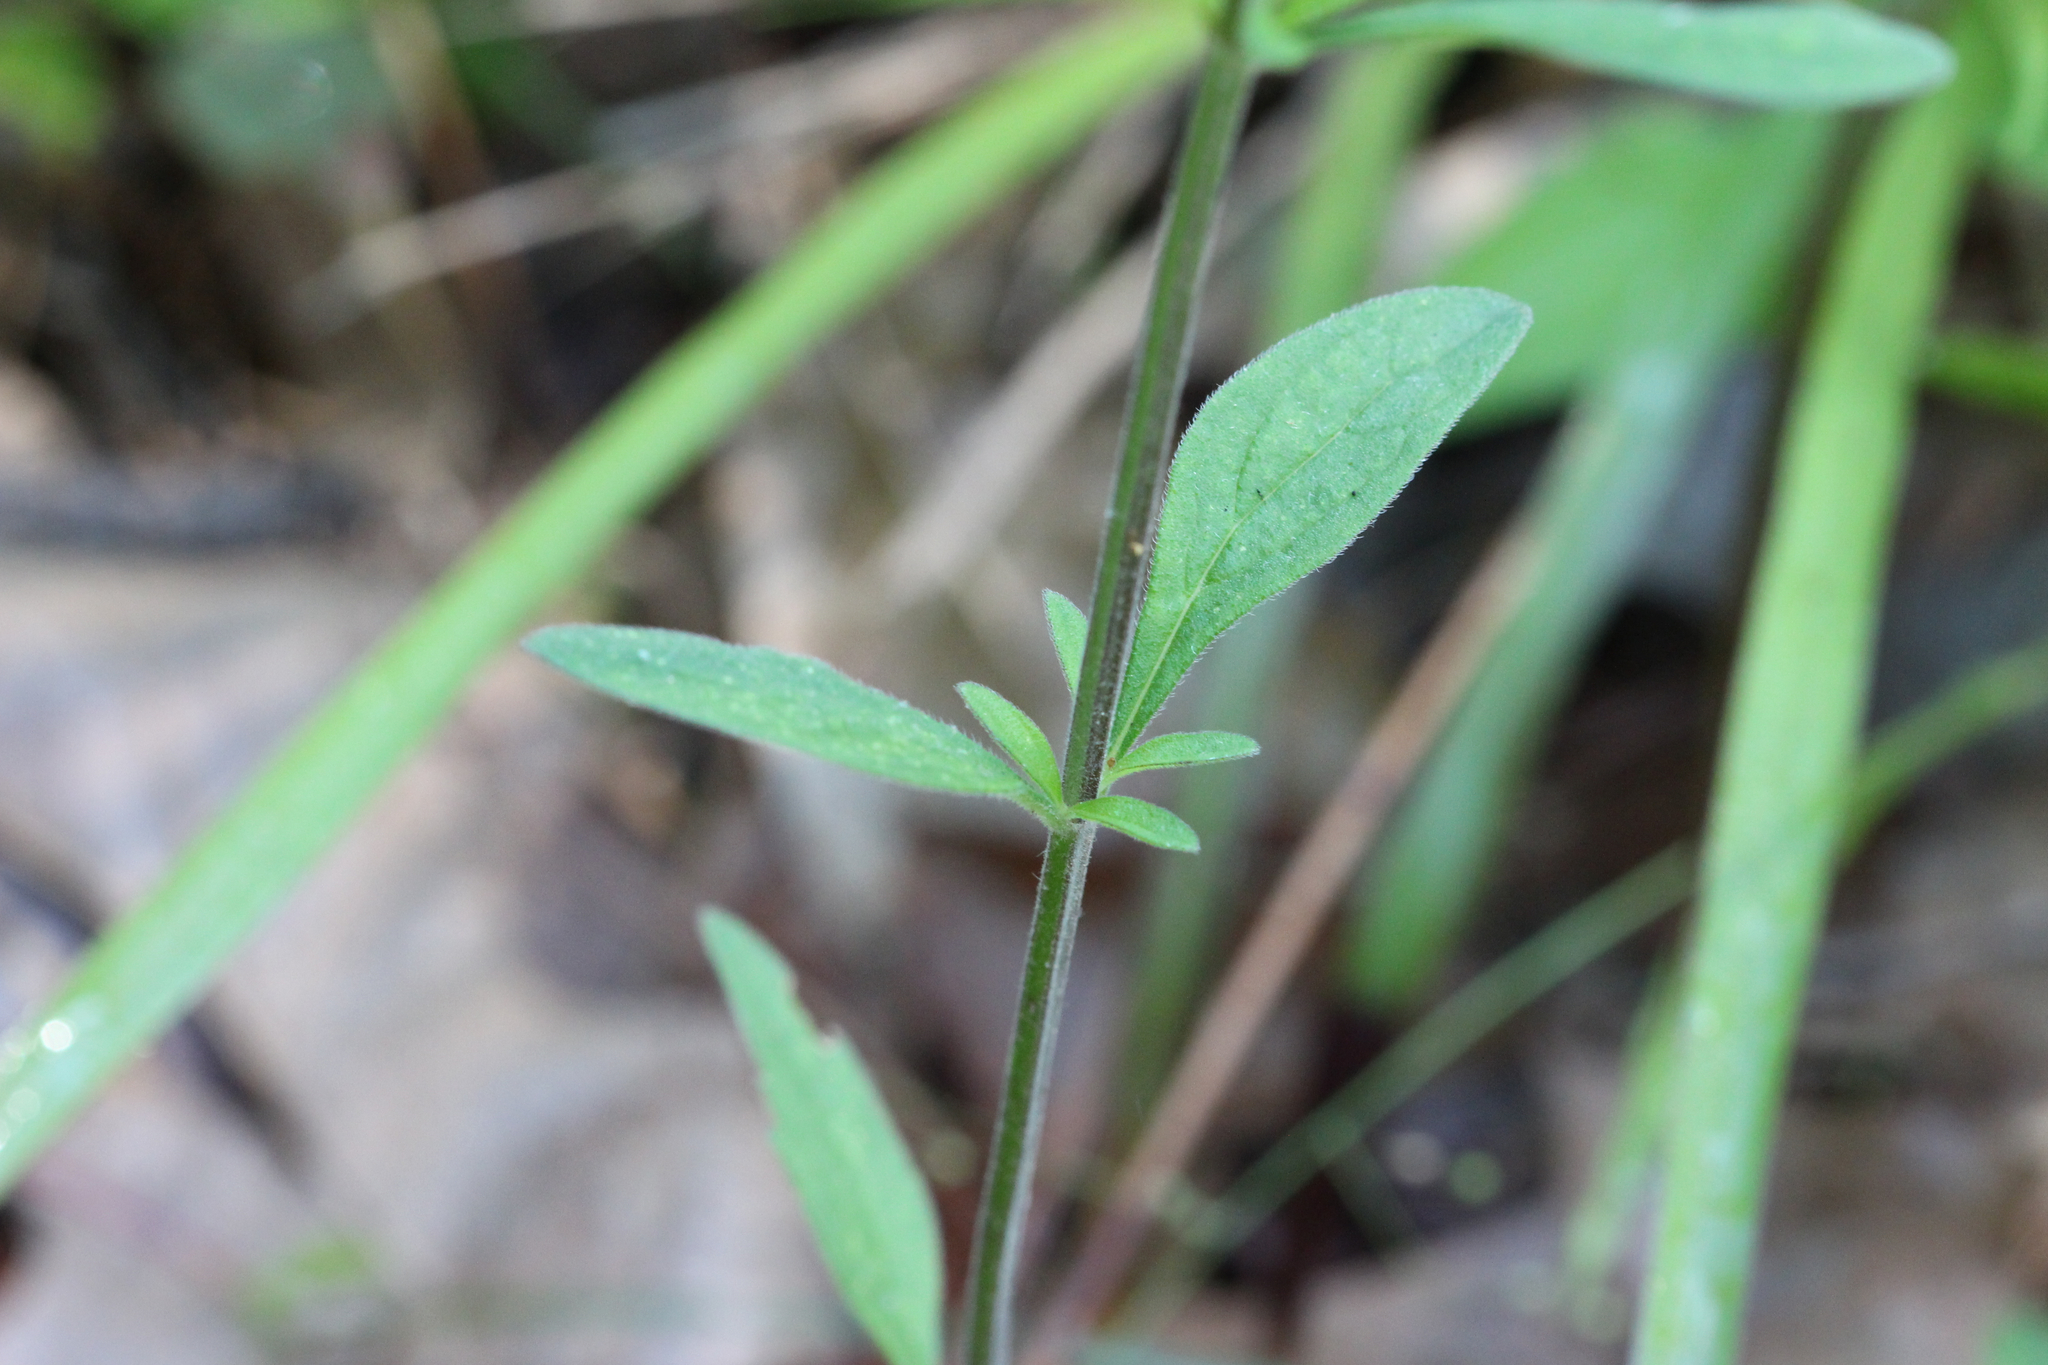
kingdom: Plantae
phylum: Tracheophyta
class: Magnoliopsida
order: Lamiales
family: Lamiaceae
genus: Scutellaria
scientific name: Scutellaria integrifolia
